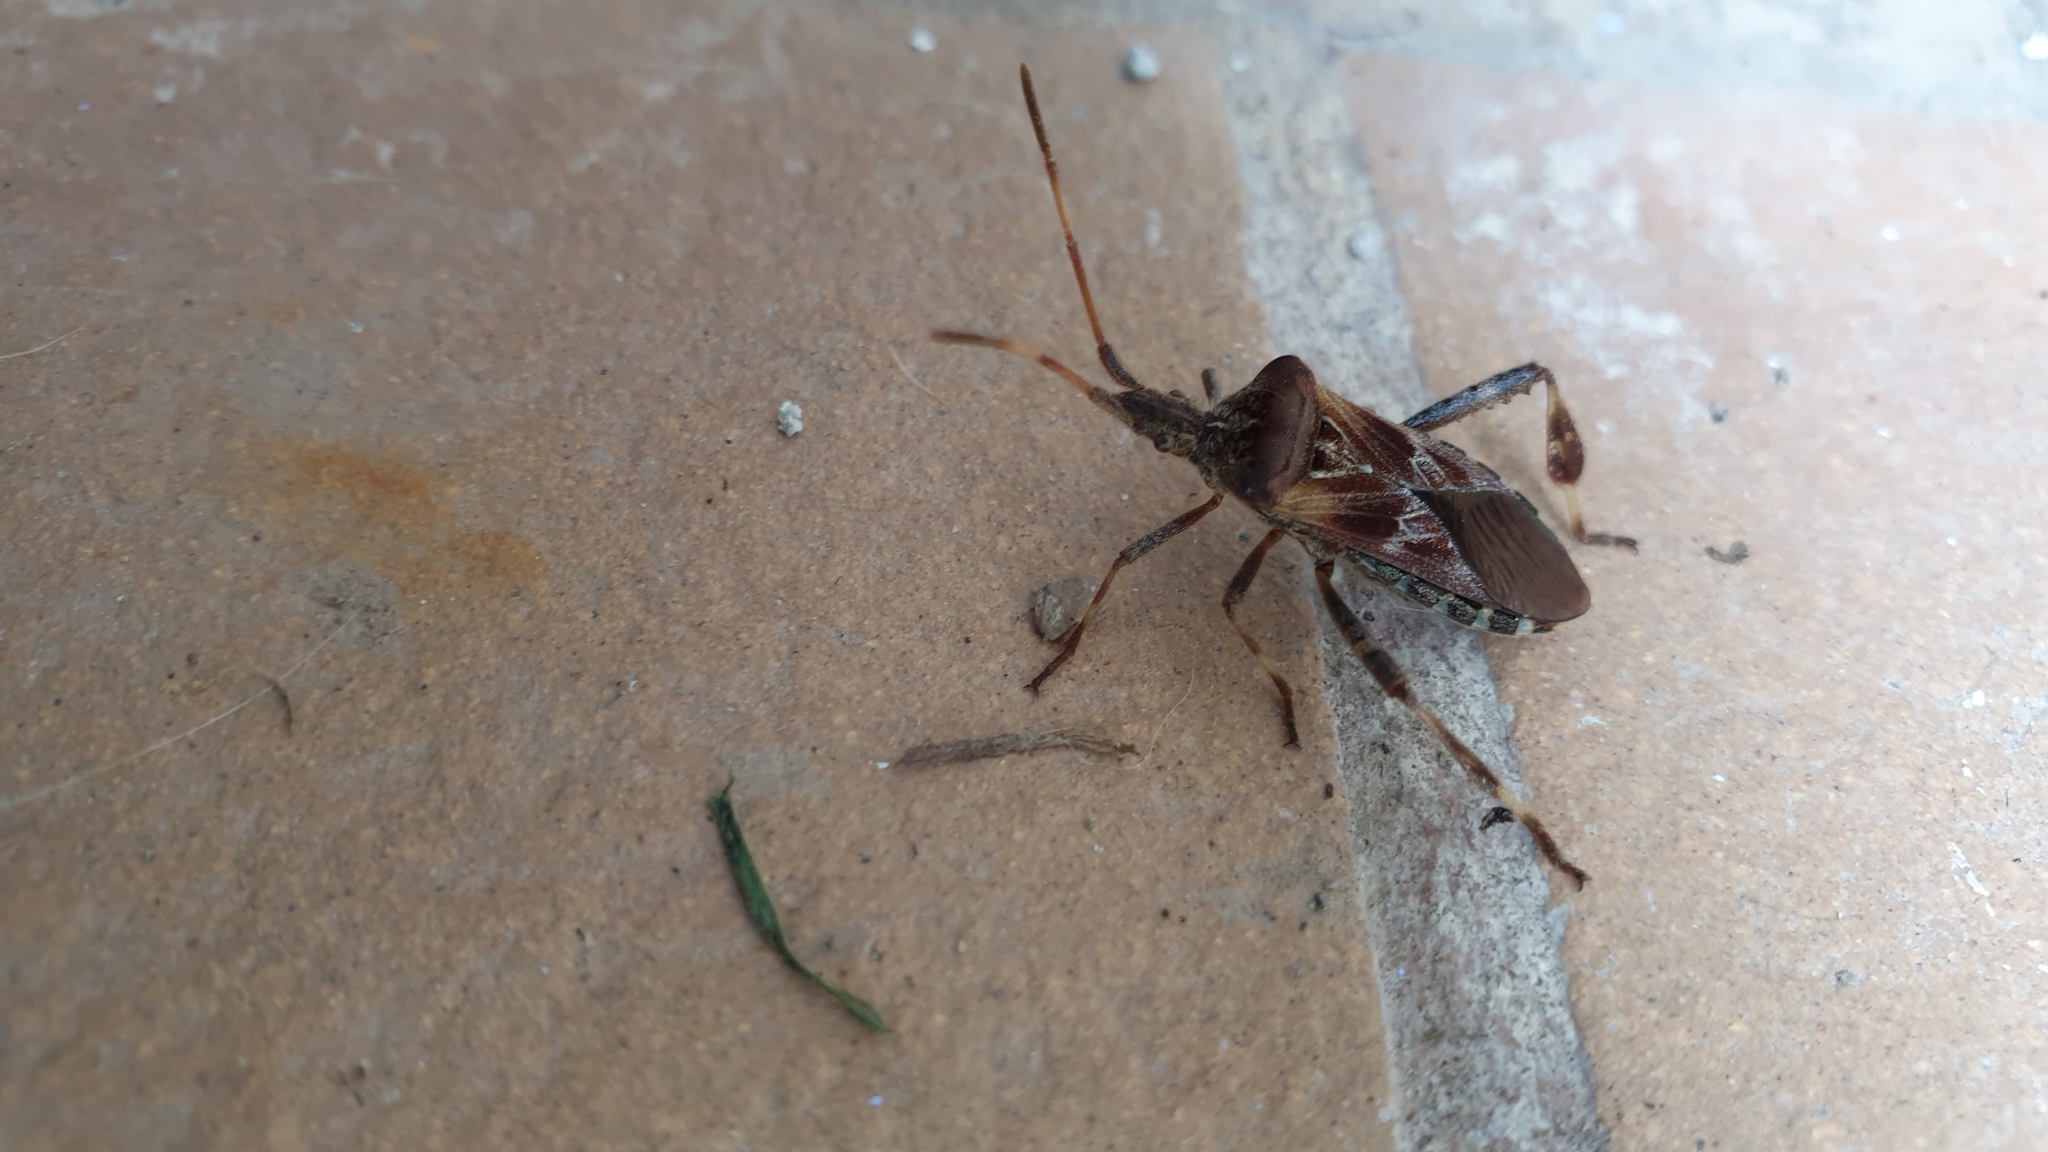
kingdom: Animalia
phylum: Arthropoda
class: Insecta
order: Hemiptera
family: Coreidae
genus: Leptoglossus
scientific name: Leptoglossus occidentalis
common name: Western conifer-seed bug
